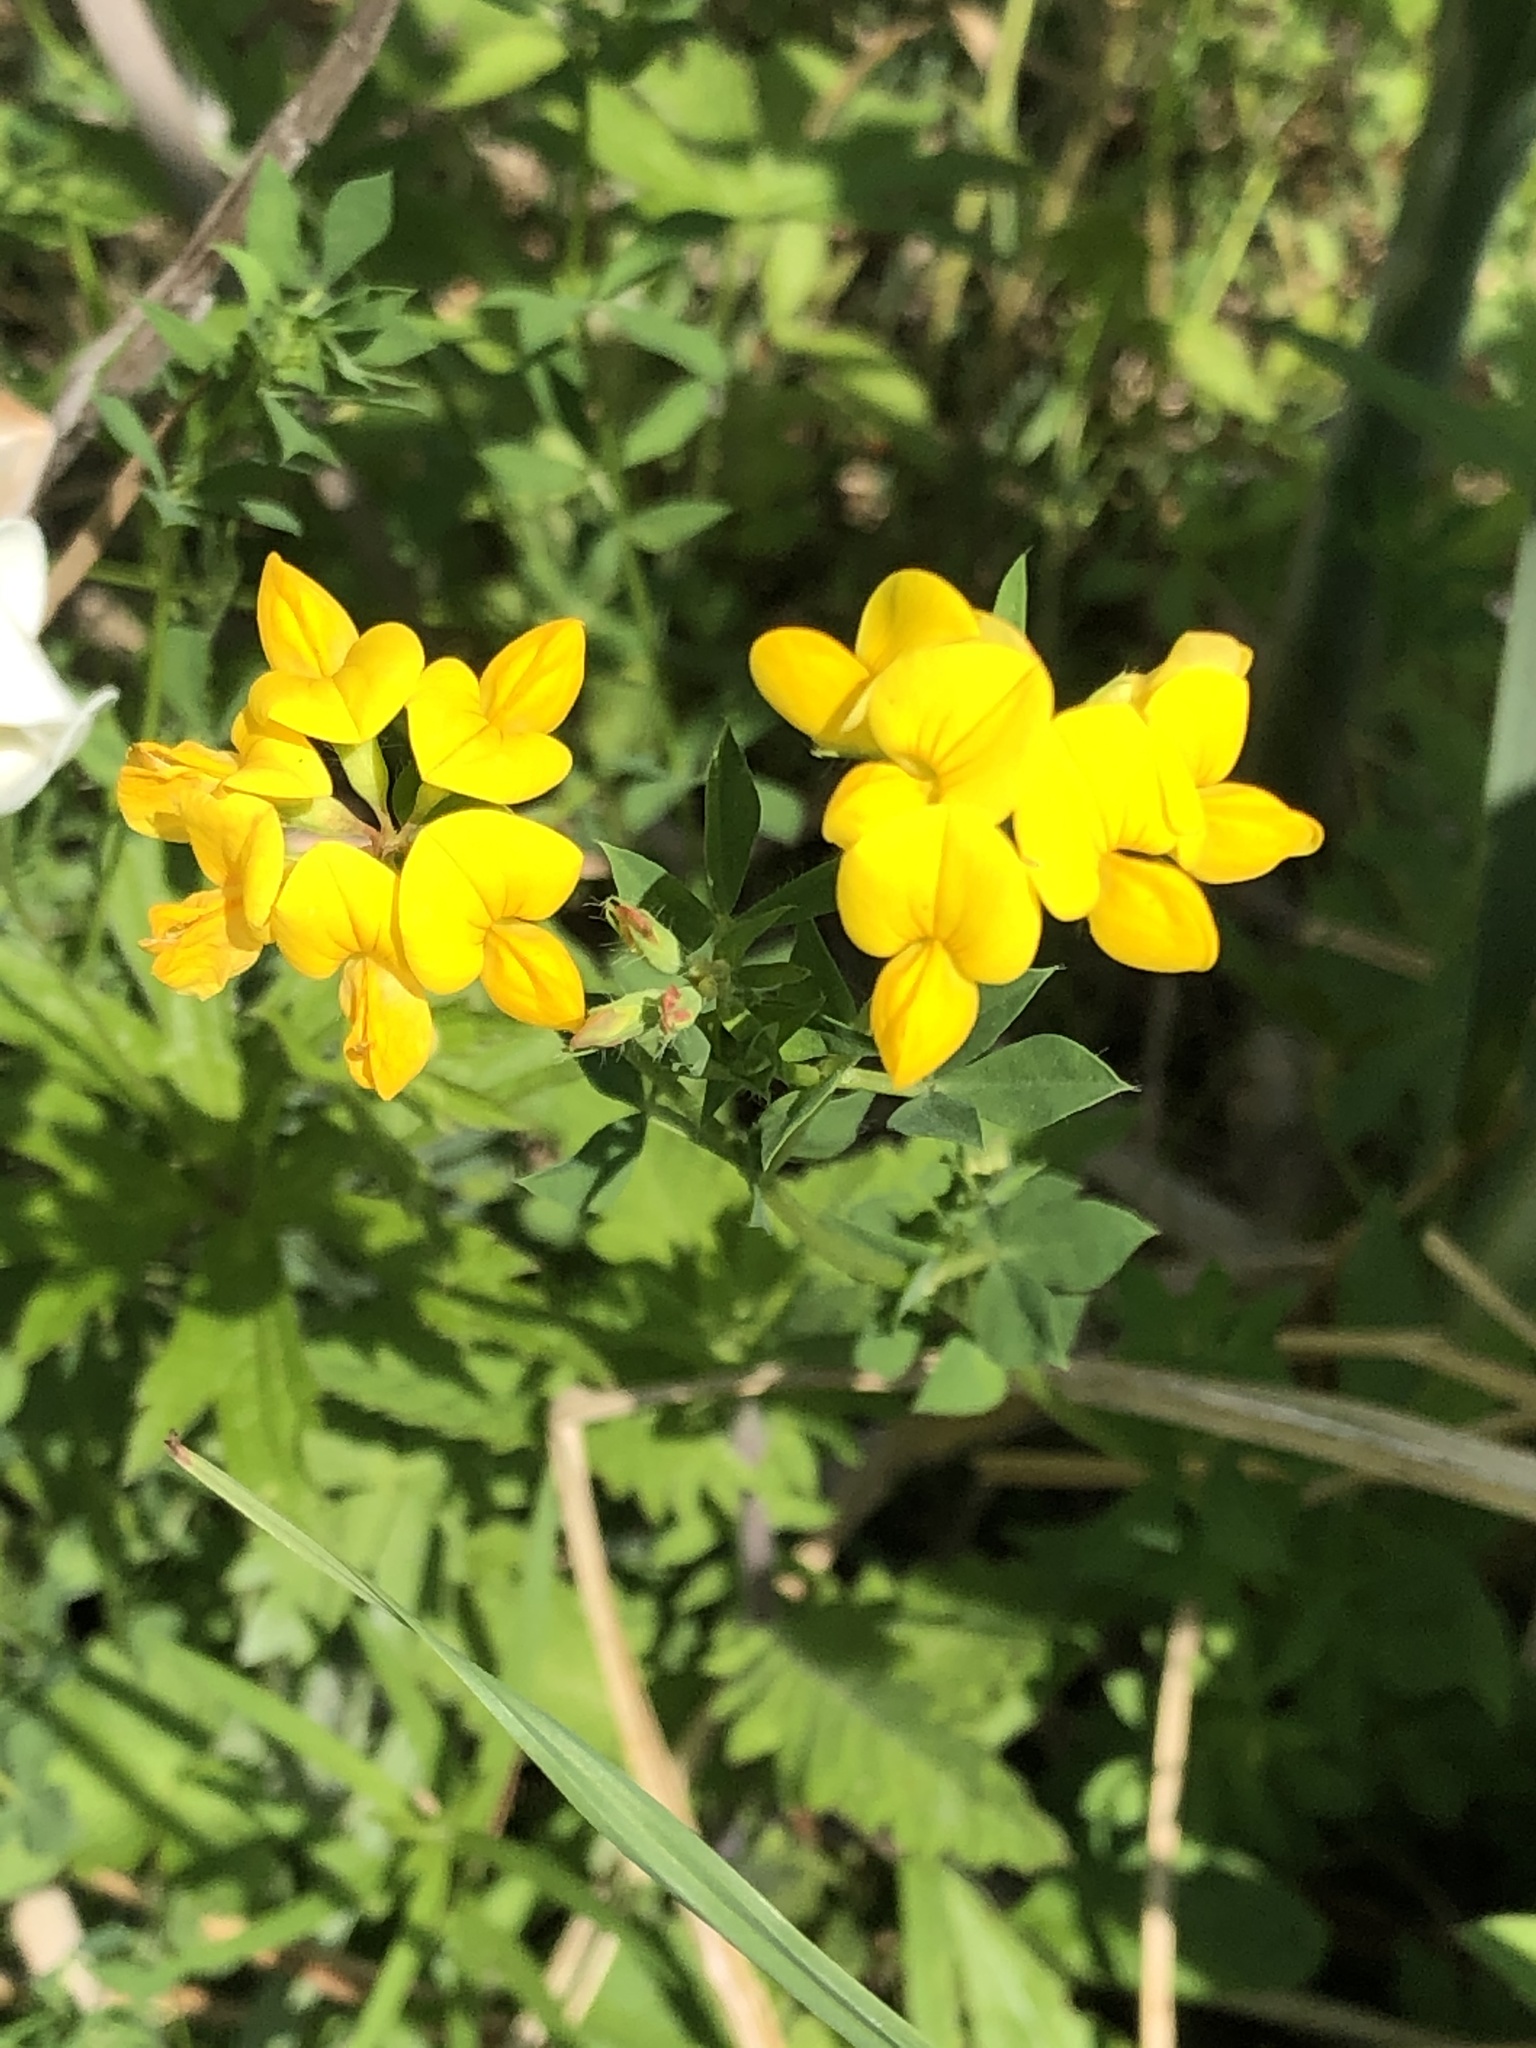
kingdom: Plantae
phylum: Tracheophyta
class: Magnoliopsida
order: Fabales
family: Fabaceae
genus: Lotus
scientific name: Lotus corniculatus
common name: Common bird's-foot-trefoil
